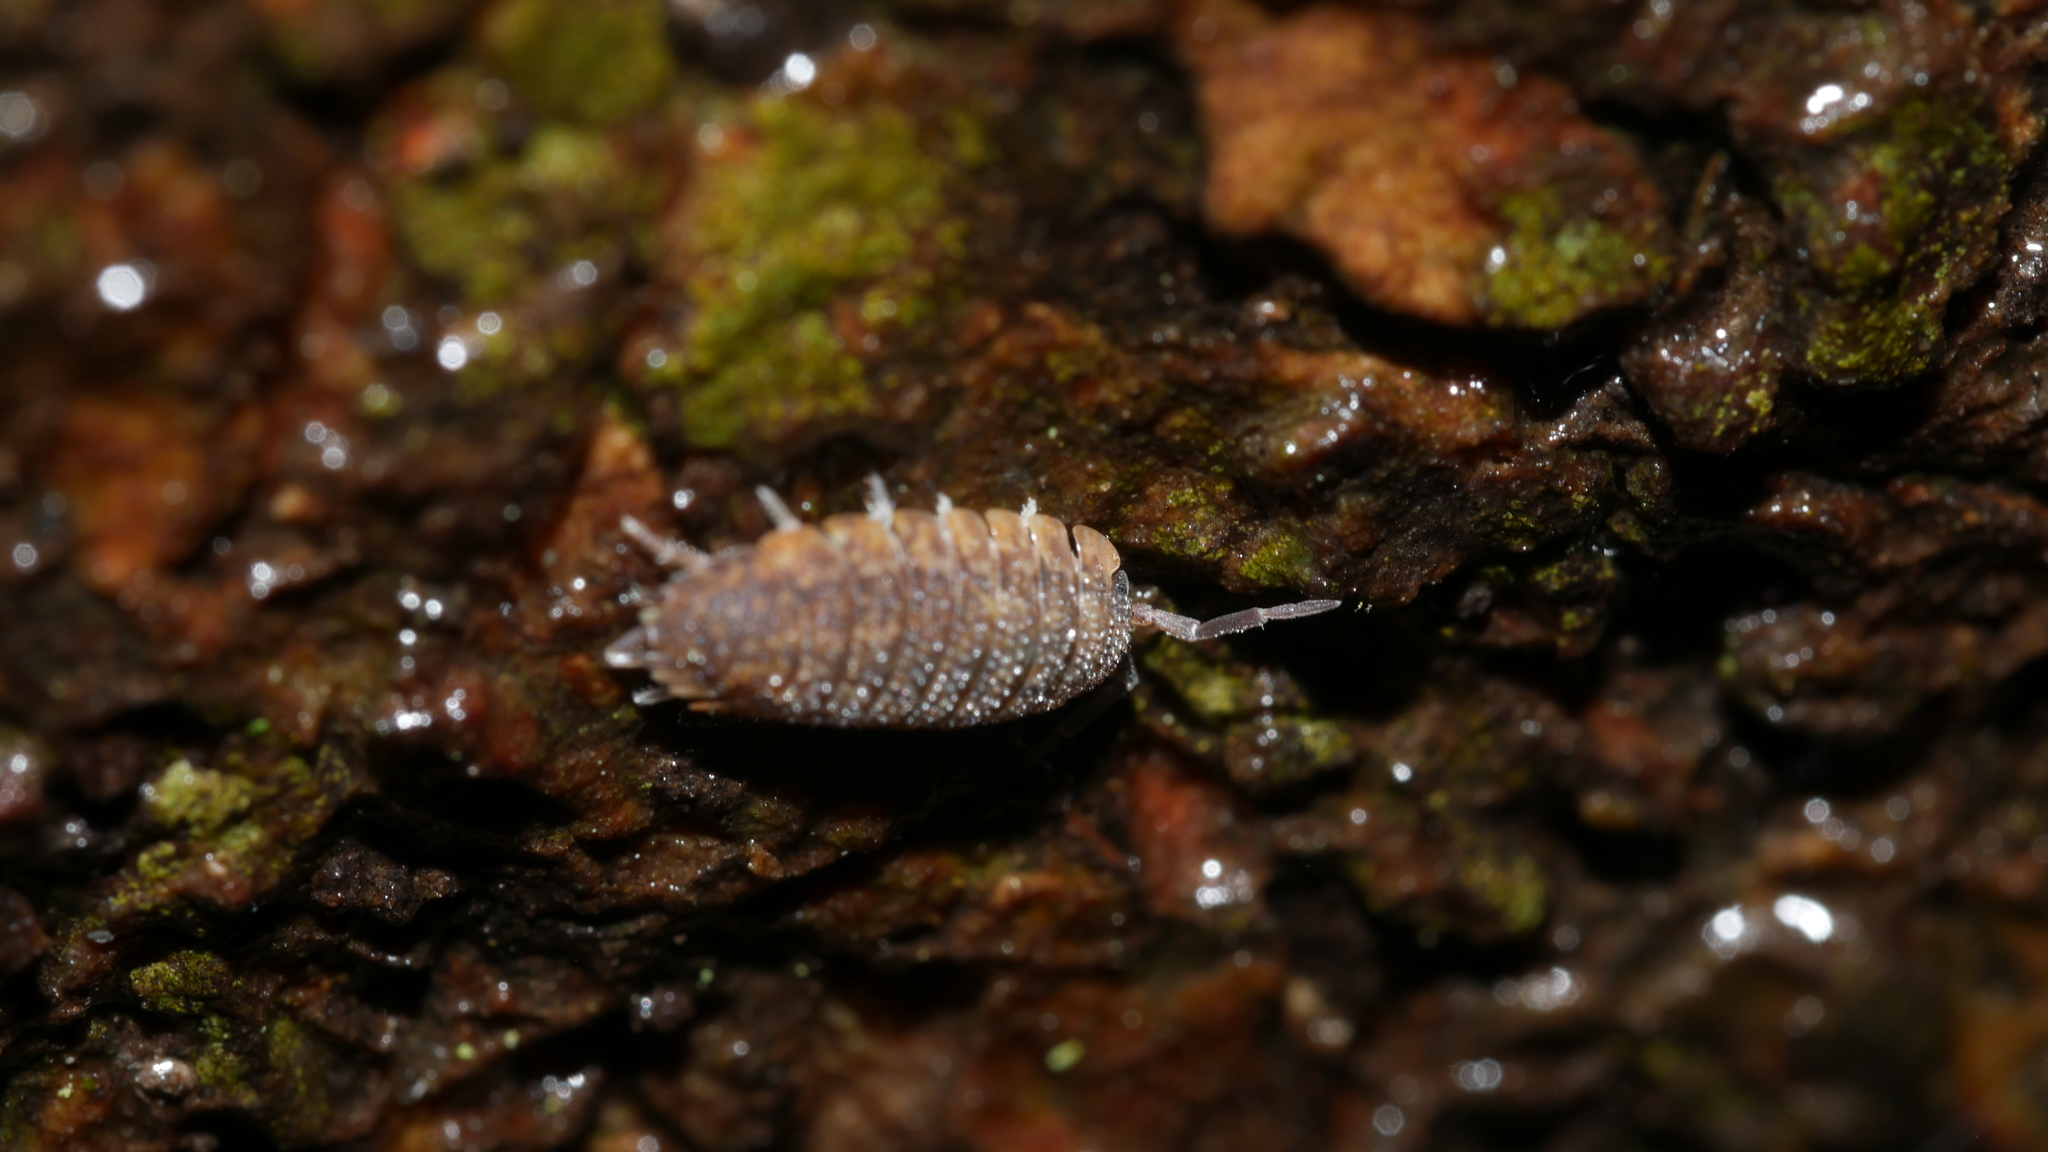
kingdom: Animalia
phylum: Arthropoda
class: Malacostraca
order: Isopoda
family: Porcellionidae
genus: Porcellio
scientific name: Porcellio scaber
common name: Common rough woodlouse
